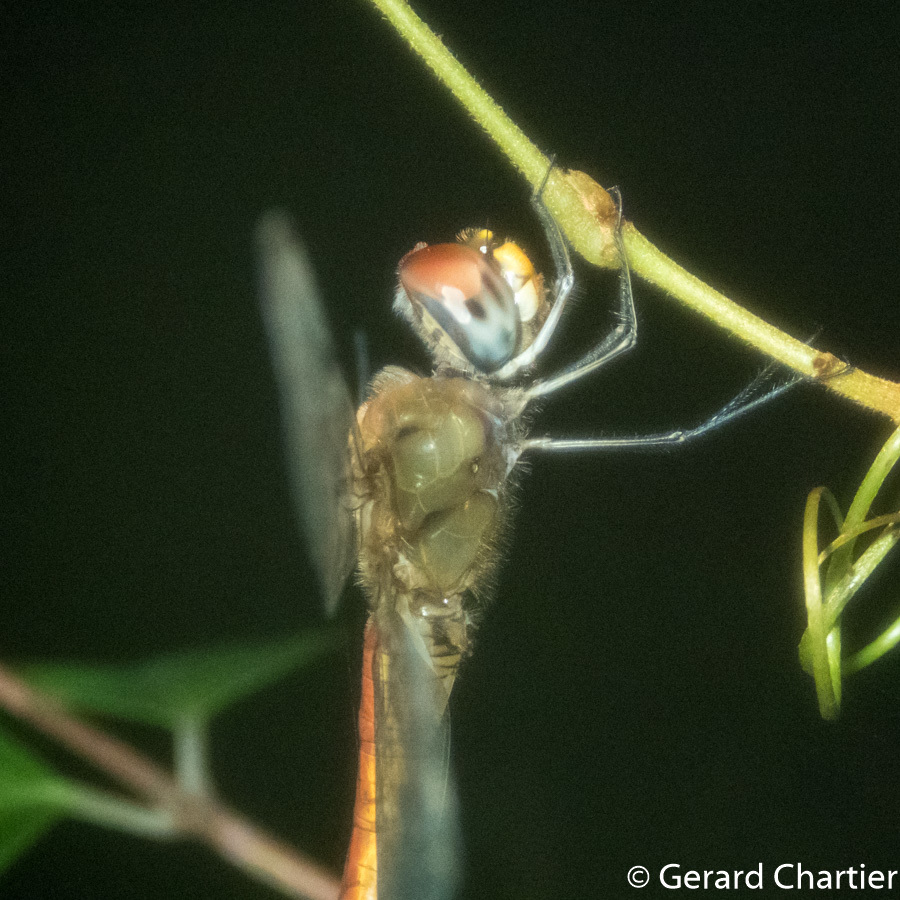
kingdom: Animalia
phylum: Arthropoda
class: Insecta
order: Odonata
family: Libellulidae
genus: Pantala
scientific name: Pantala flavescens
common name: Wandering glider
